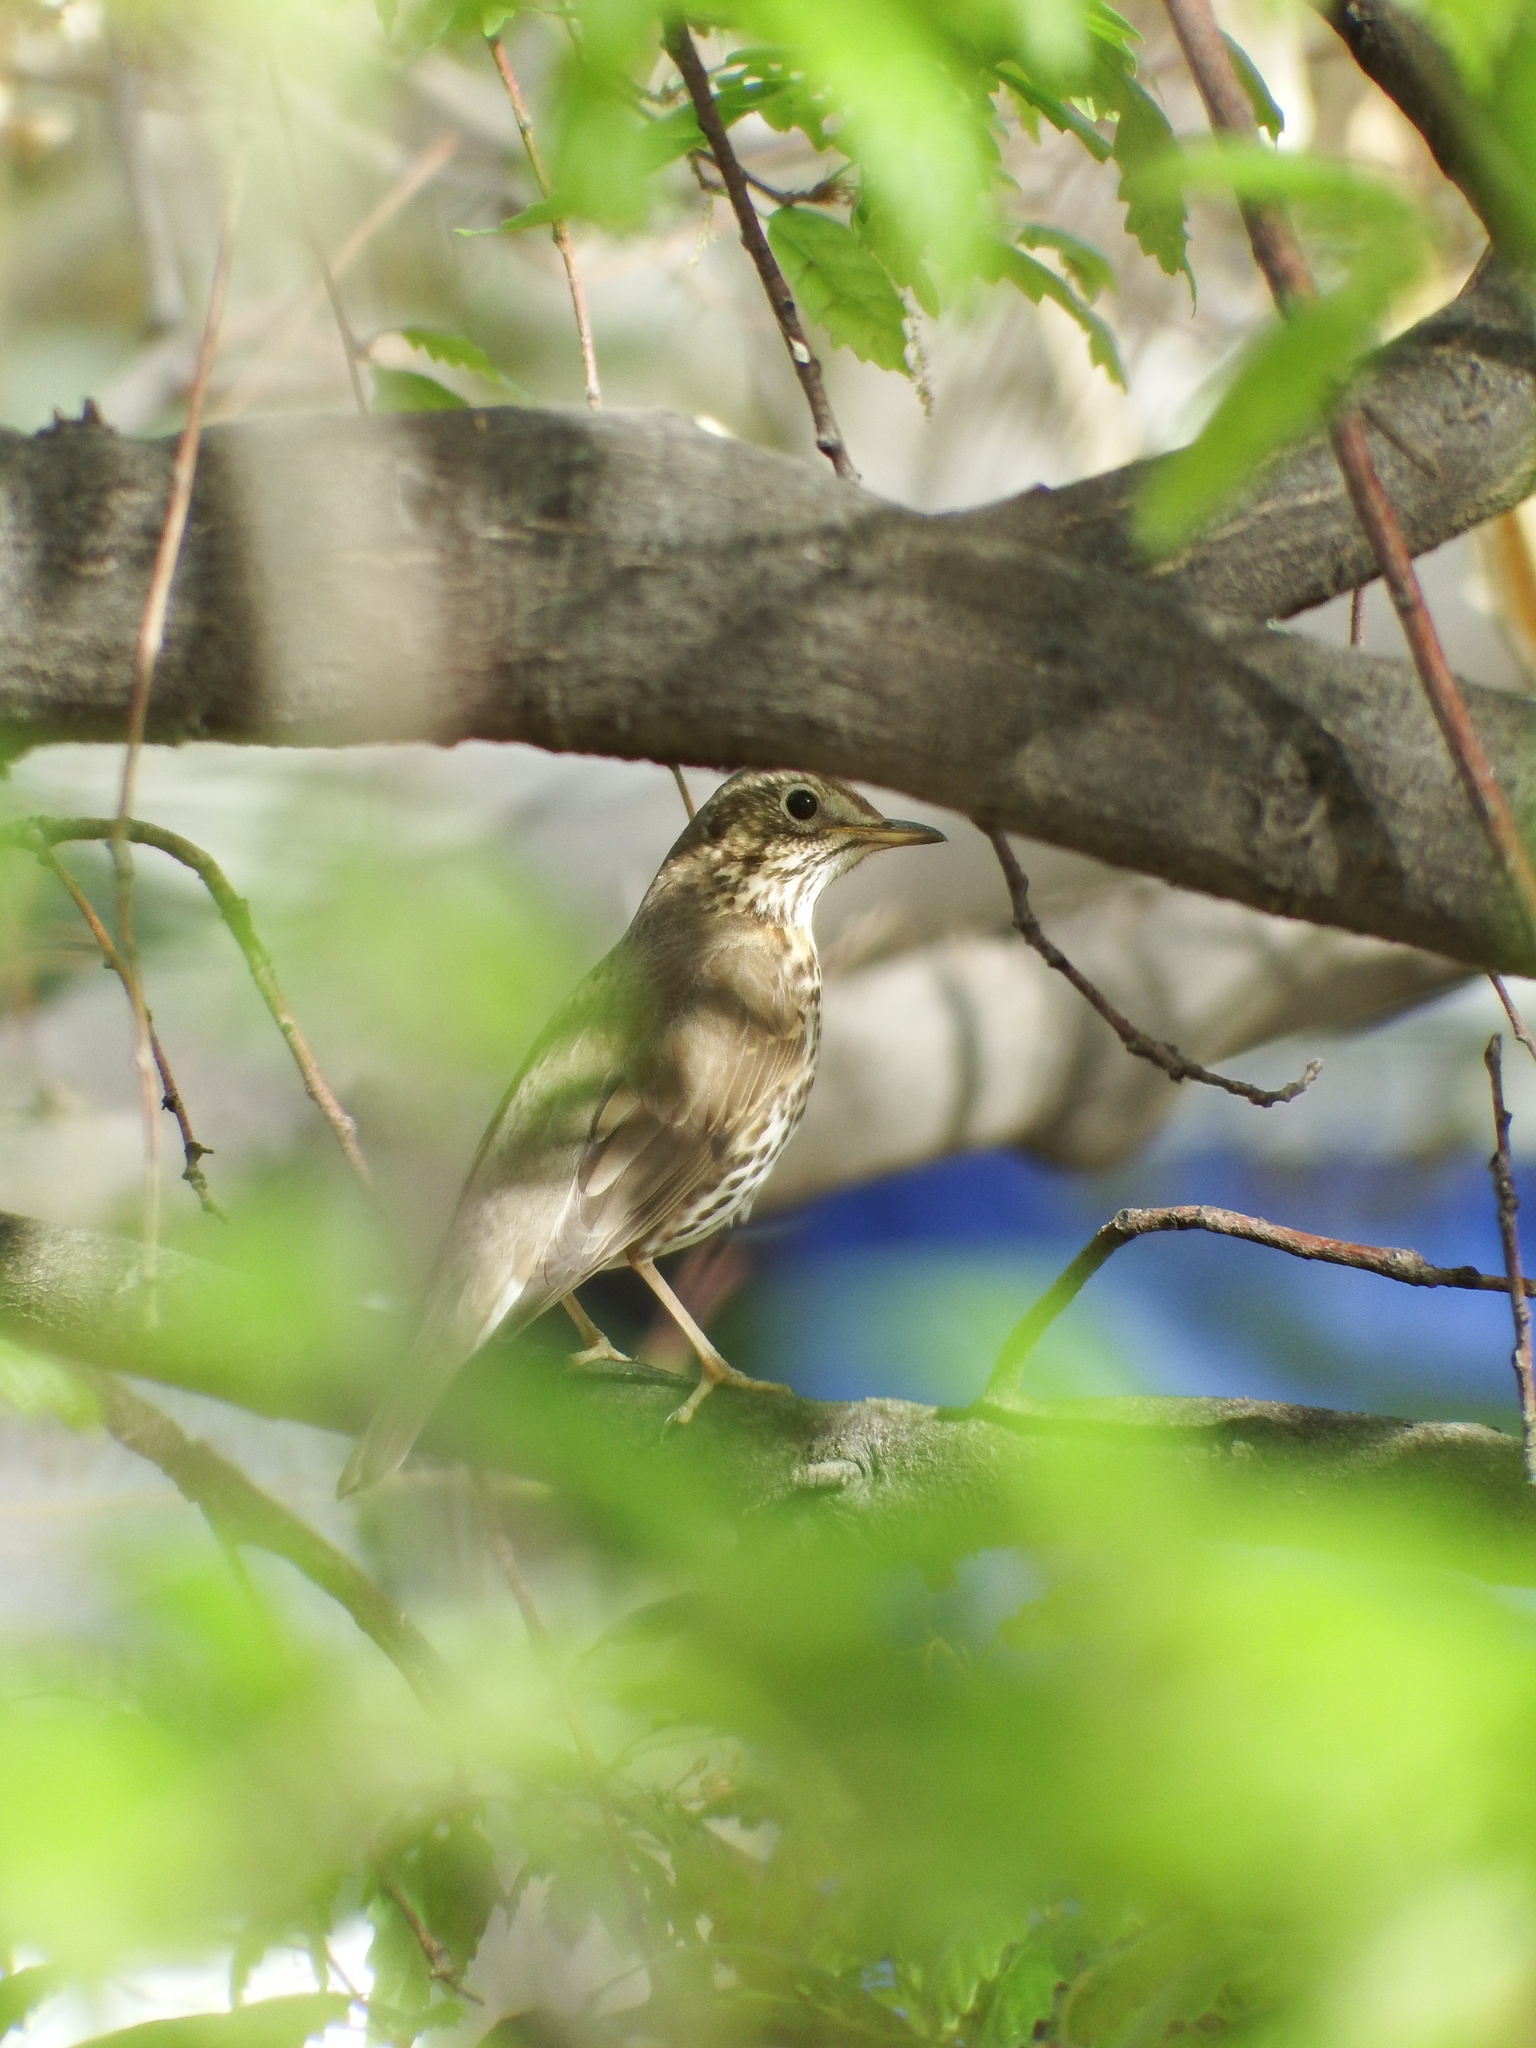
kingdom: Animalia
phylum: Chordata
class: Aves
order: Passeriformes
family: Turdidae
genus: Turdus
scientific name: Turdus philomelos
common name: Song thrush
